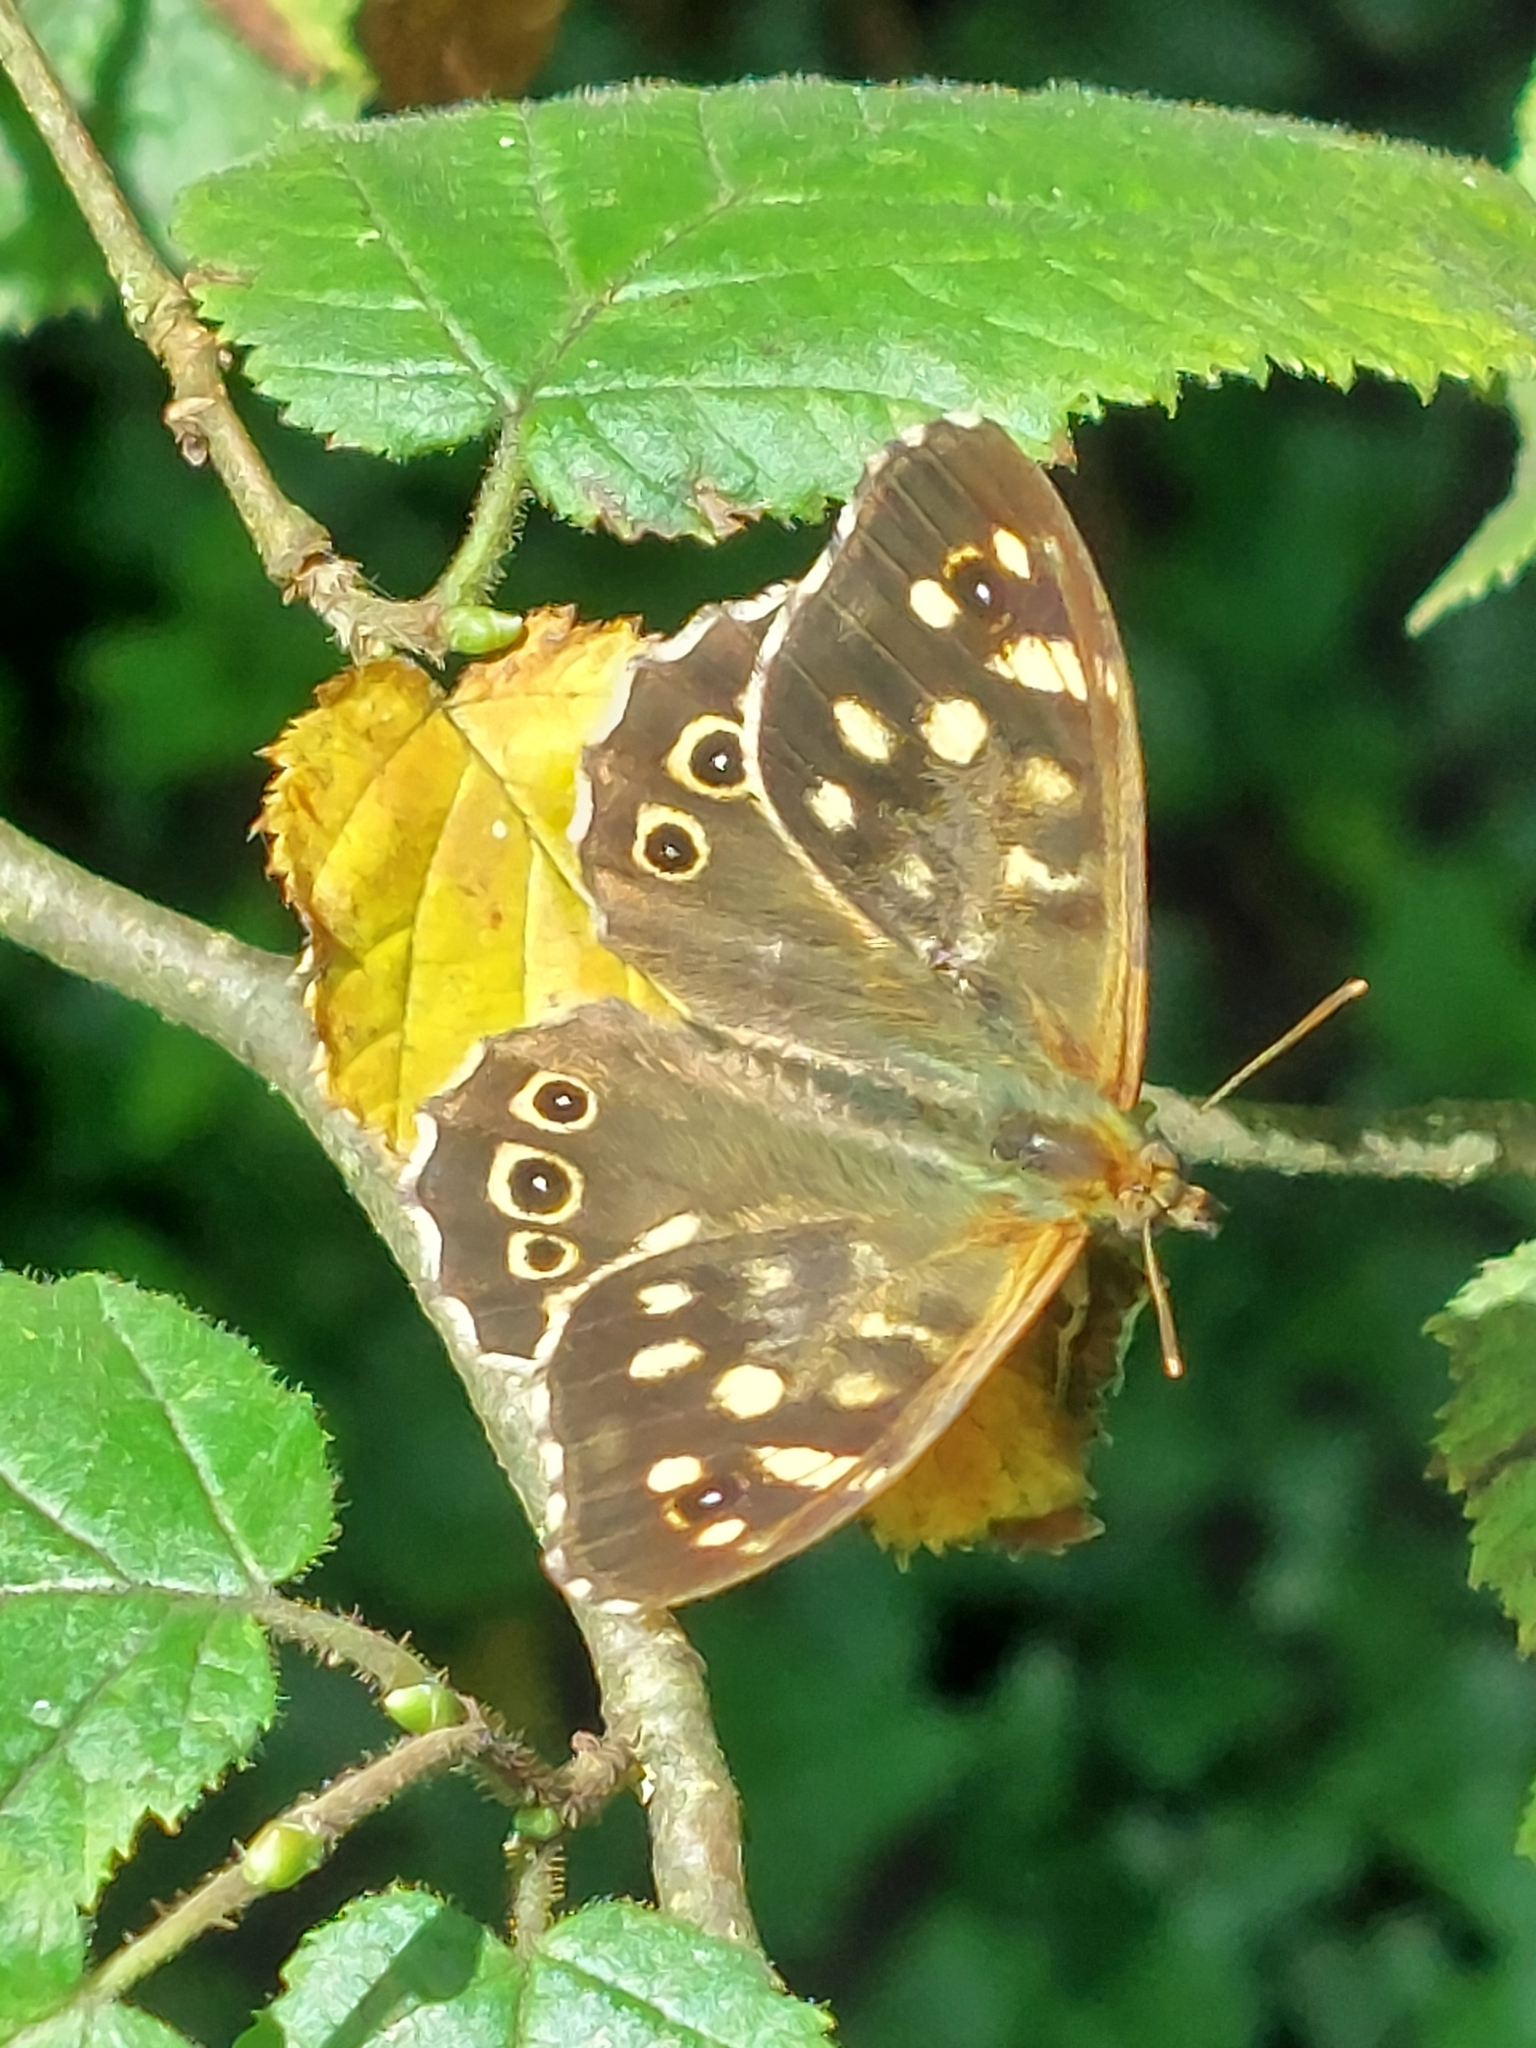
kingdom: Animalia
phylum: Arthropoda
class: Insecta
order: Lepidoptera
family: Nymphalidae
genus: Pararge
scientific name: Pararge aegeria
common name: Speckled wood
